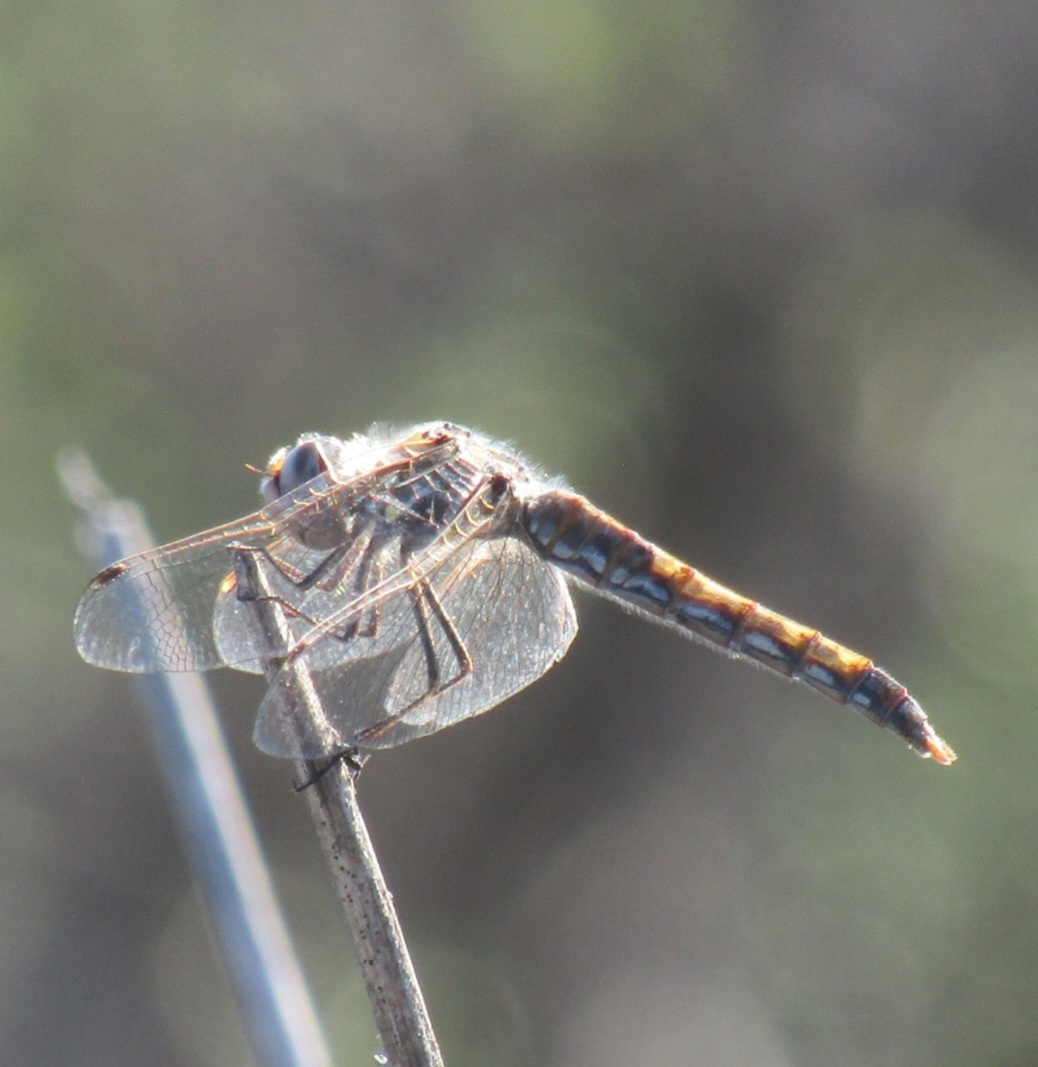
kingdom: Animalia
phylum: Arthropoda
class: Insecta
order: Odonata
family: Libellulidae
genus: Sympetrum
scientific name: Sympetrum corruptum
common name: Variegated meadowhawk
